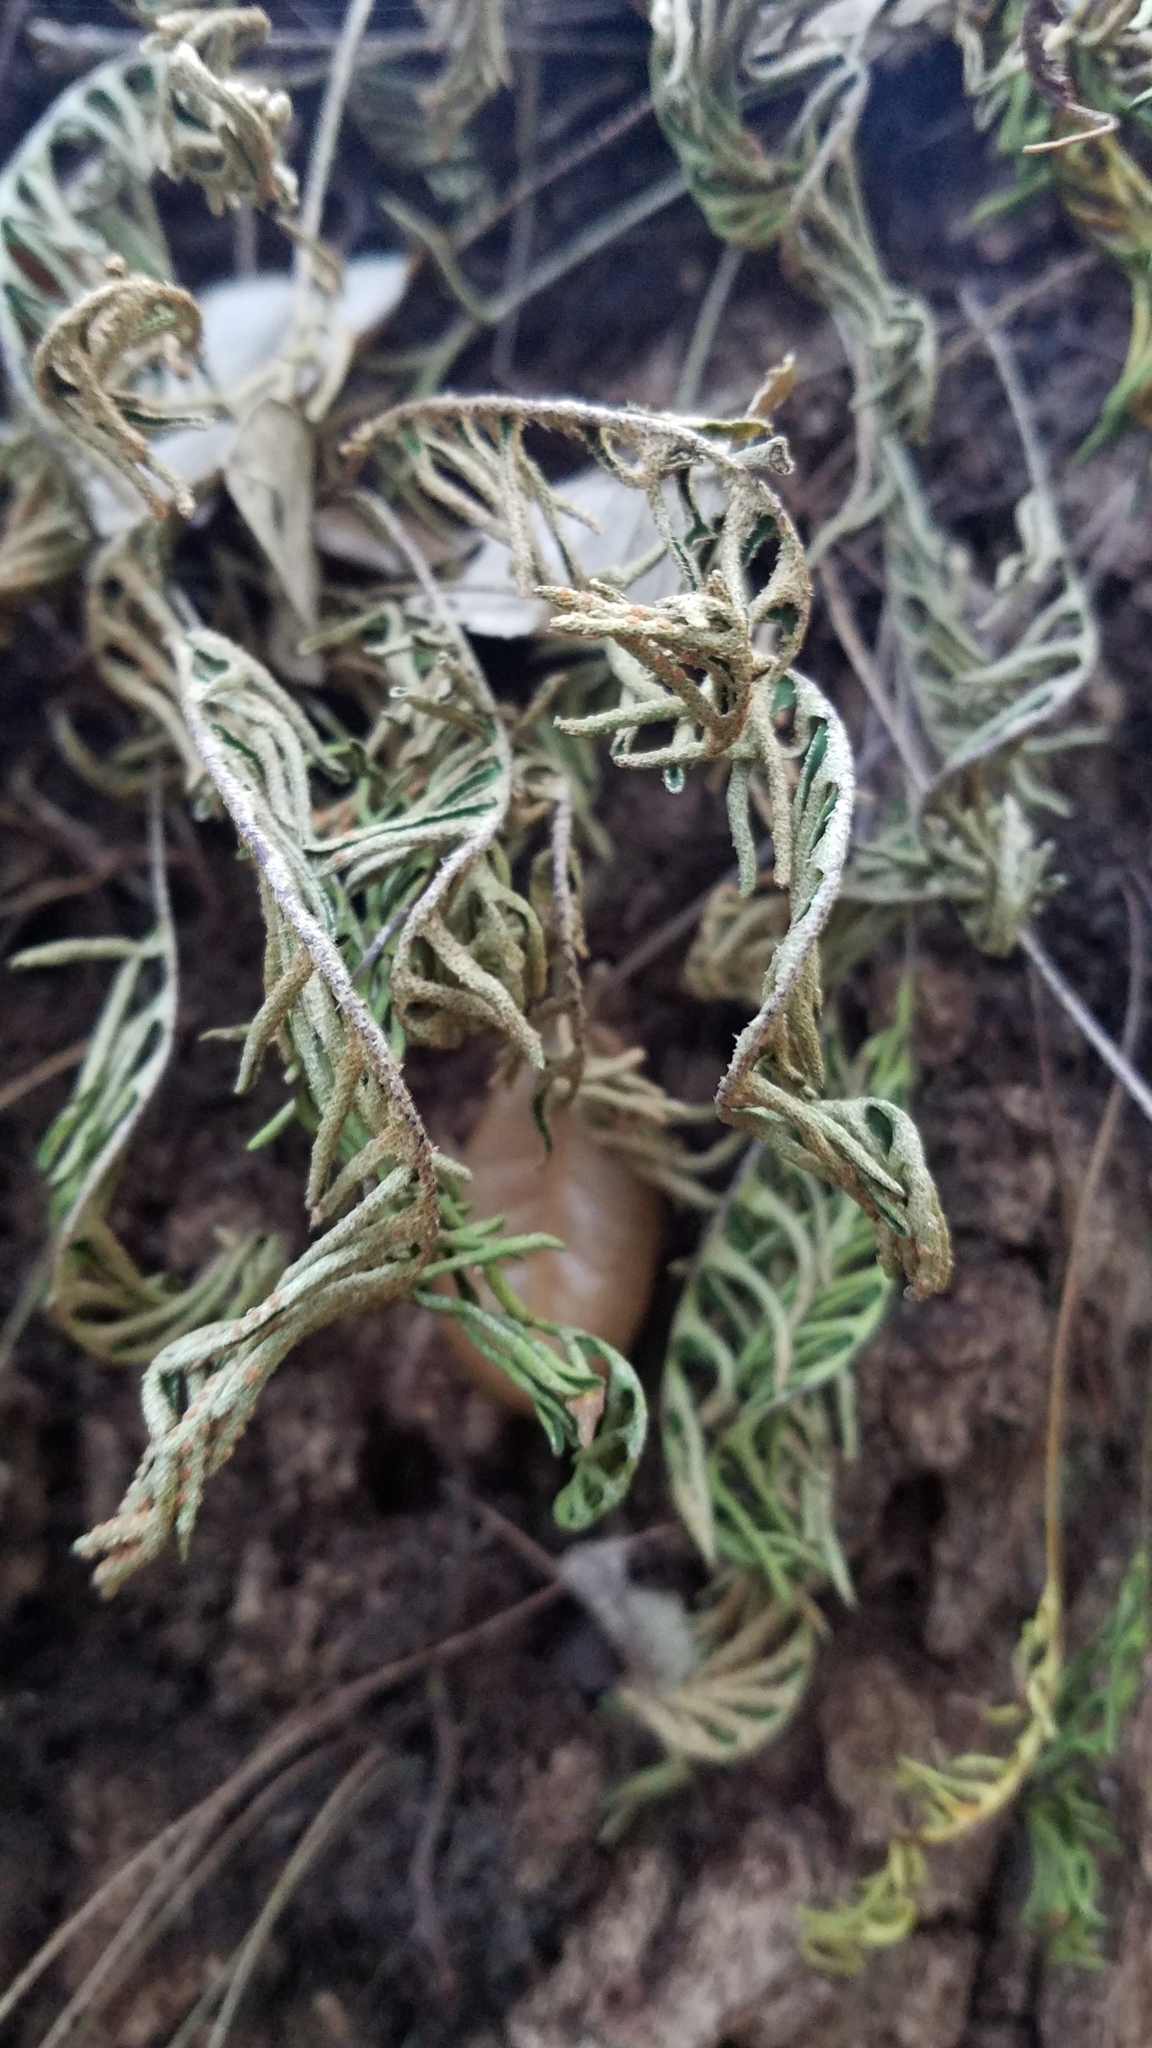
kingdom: Plantae
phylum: Tracheophyta
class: Polypodiopsida
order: Polypodiales
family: Polypodiaceae
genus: Pleopeltis
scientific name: Pleopeltis michauxiana
